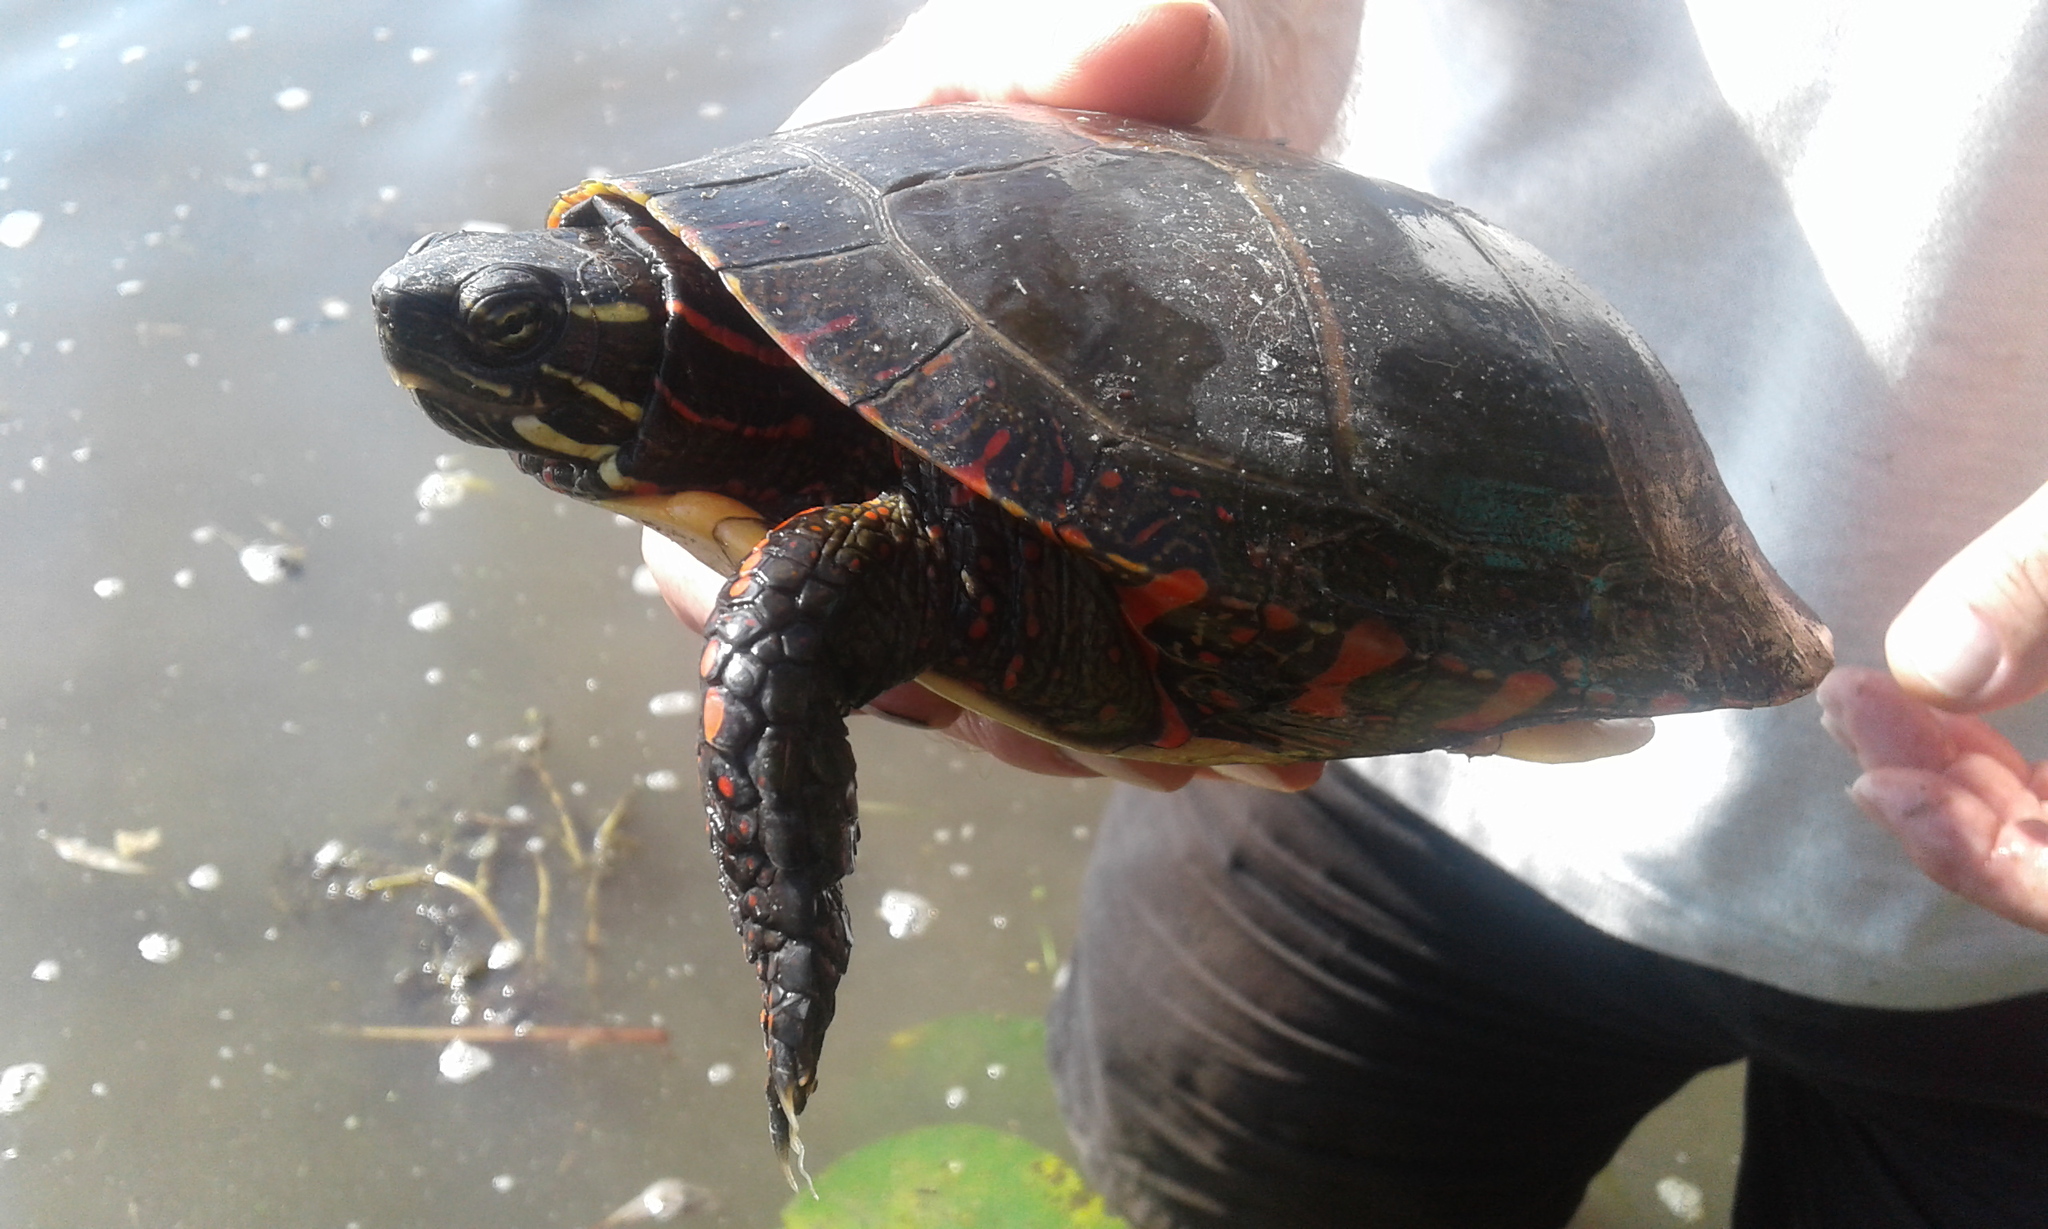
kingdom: Animalia
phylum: Chordata
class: Testudines
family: Emydidae
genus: Chrysemys
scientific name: Chrysemys picta
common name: Painted turtle
